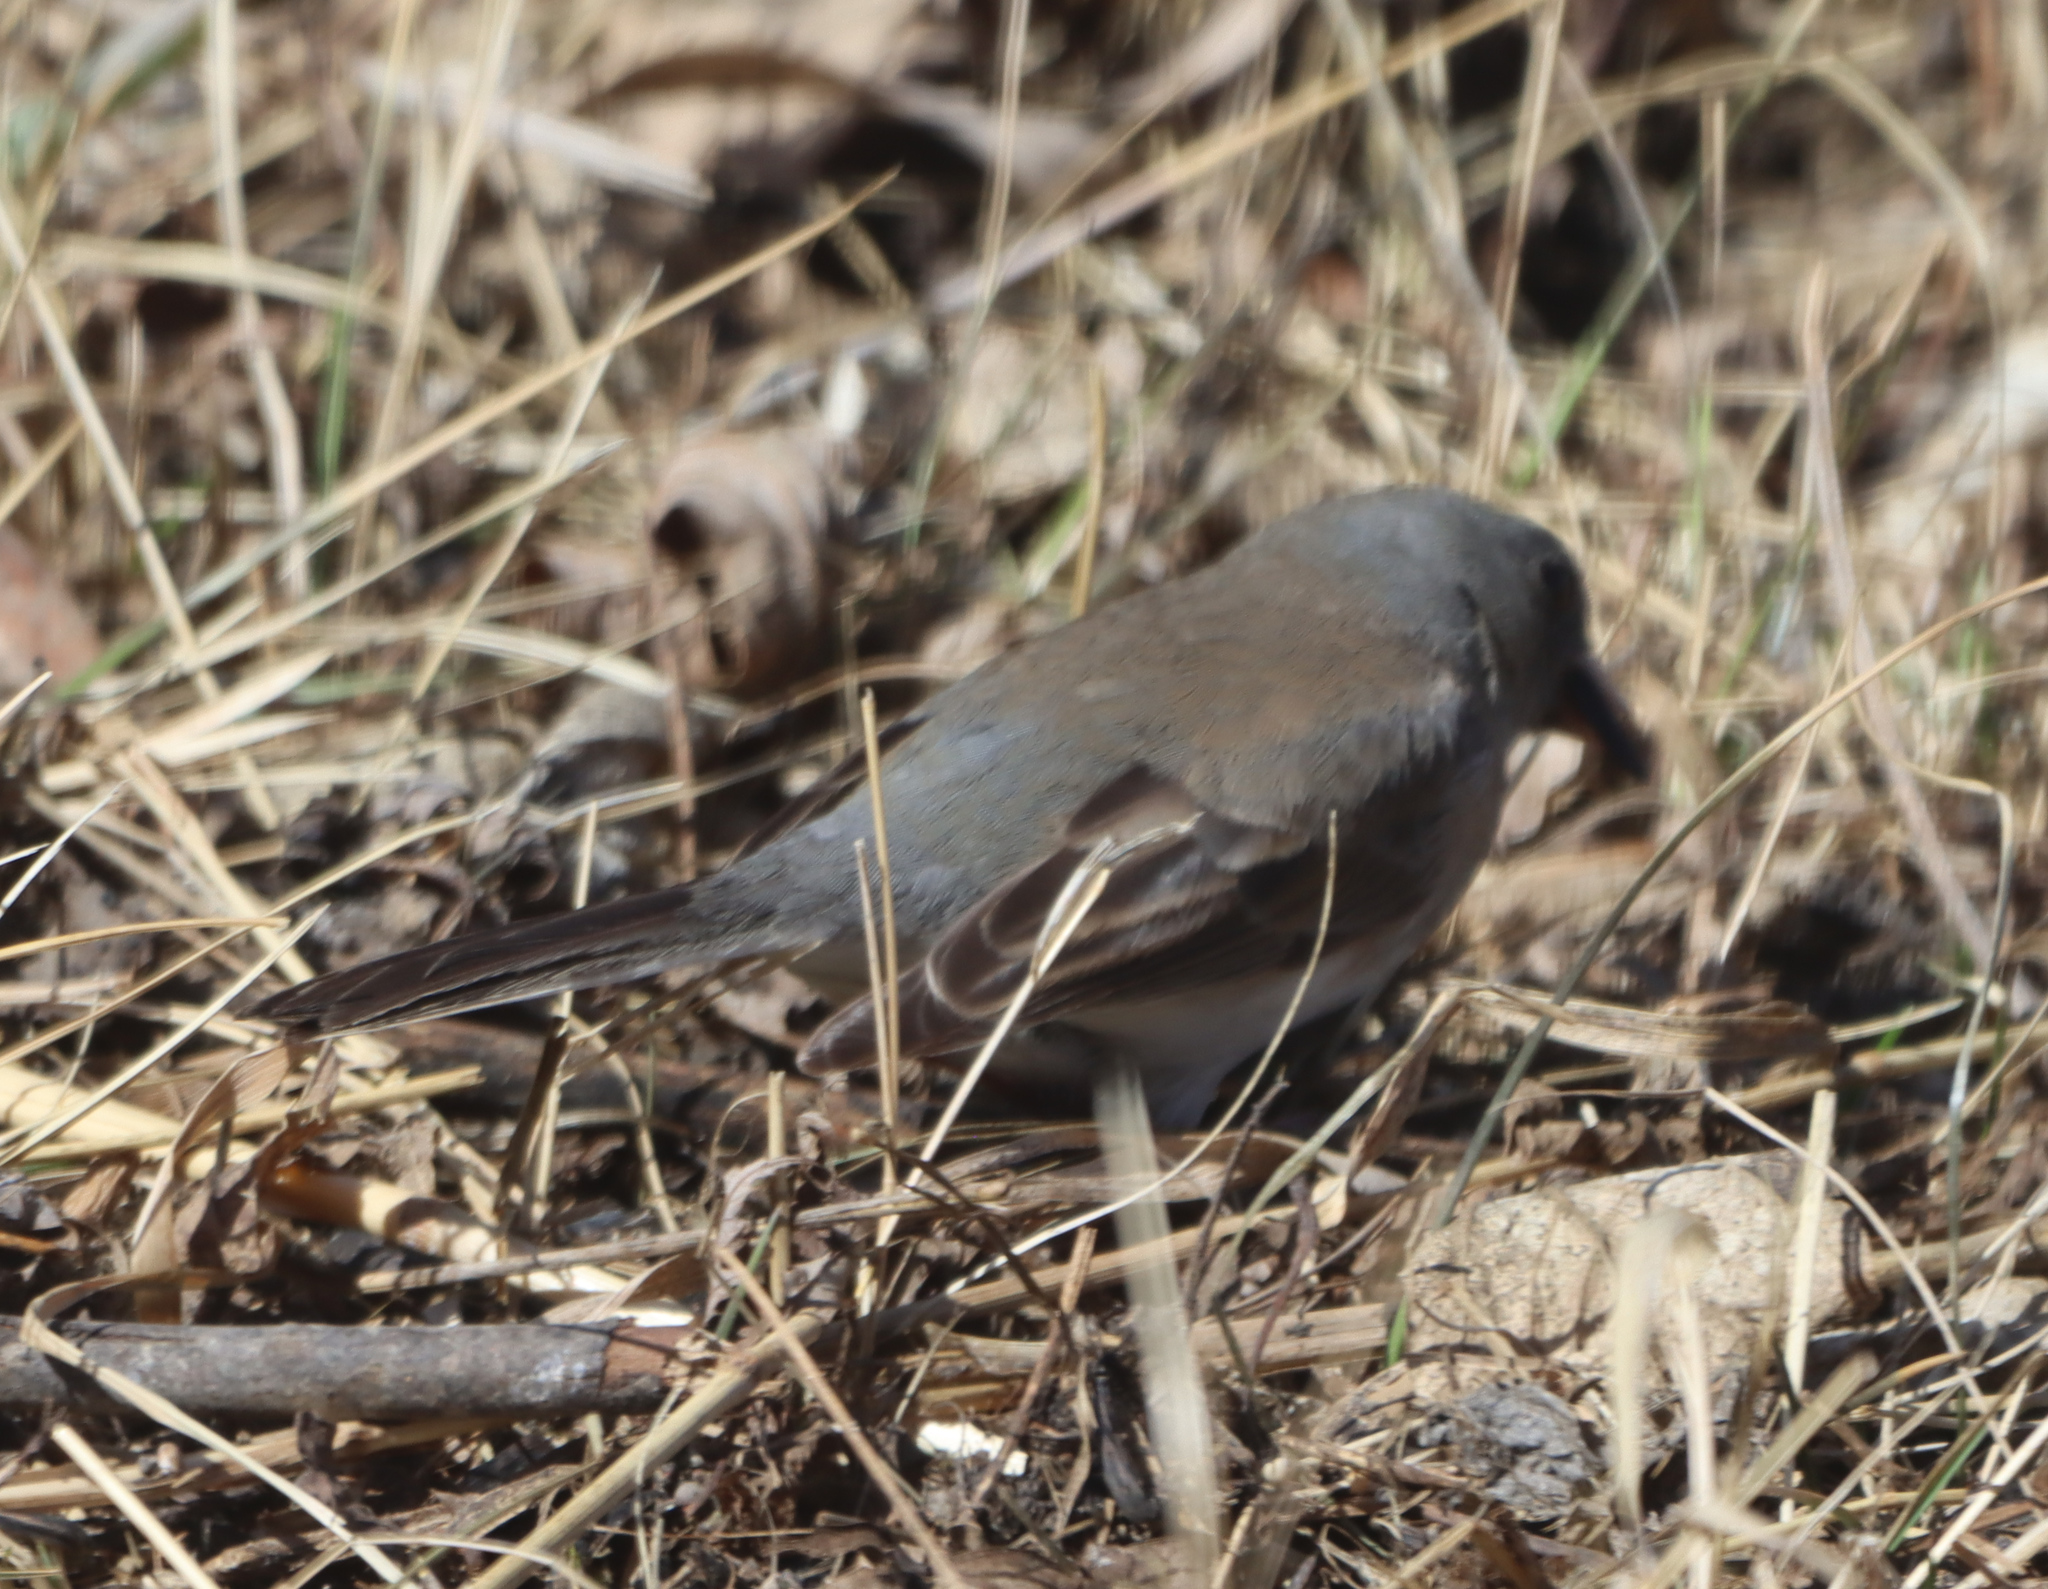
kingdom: Animalia
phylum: Chordata
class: Aves
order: Passeriformes
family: Passerellidae
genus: Junco
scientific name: Junco hyemalis
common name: Dark-eyed junco
